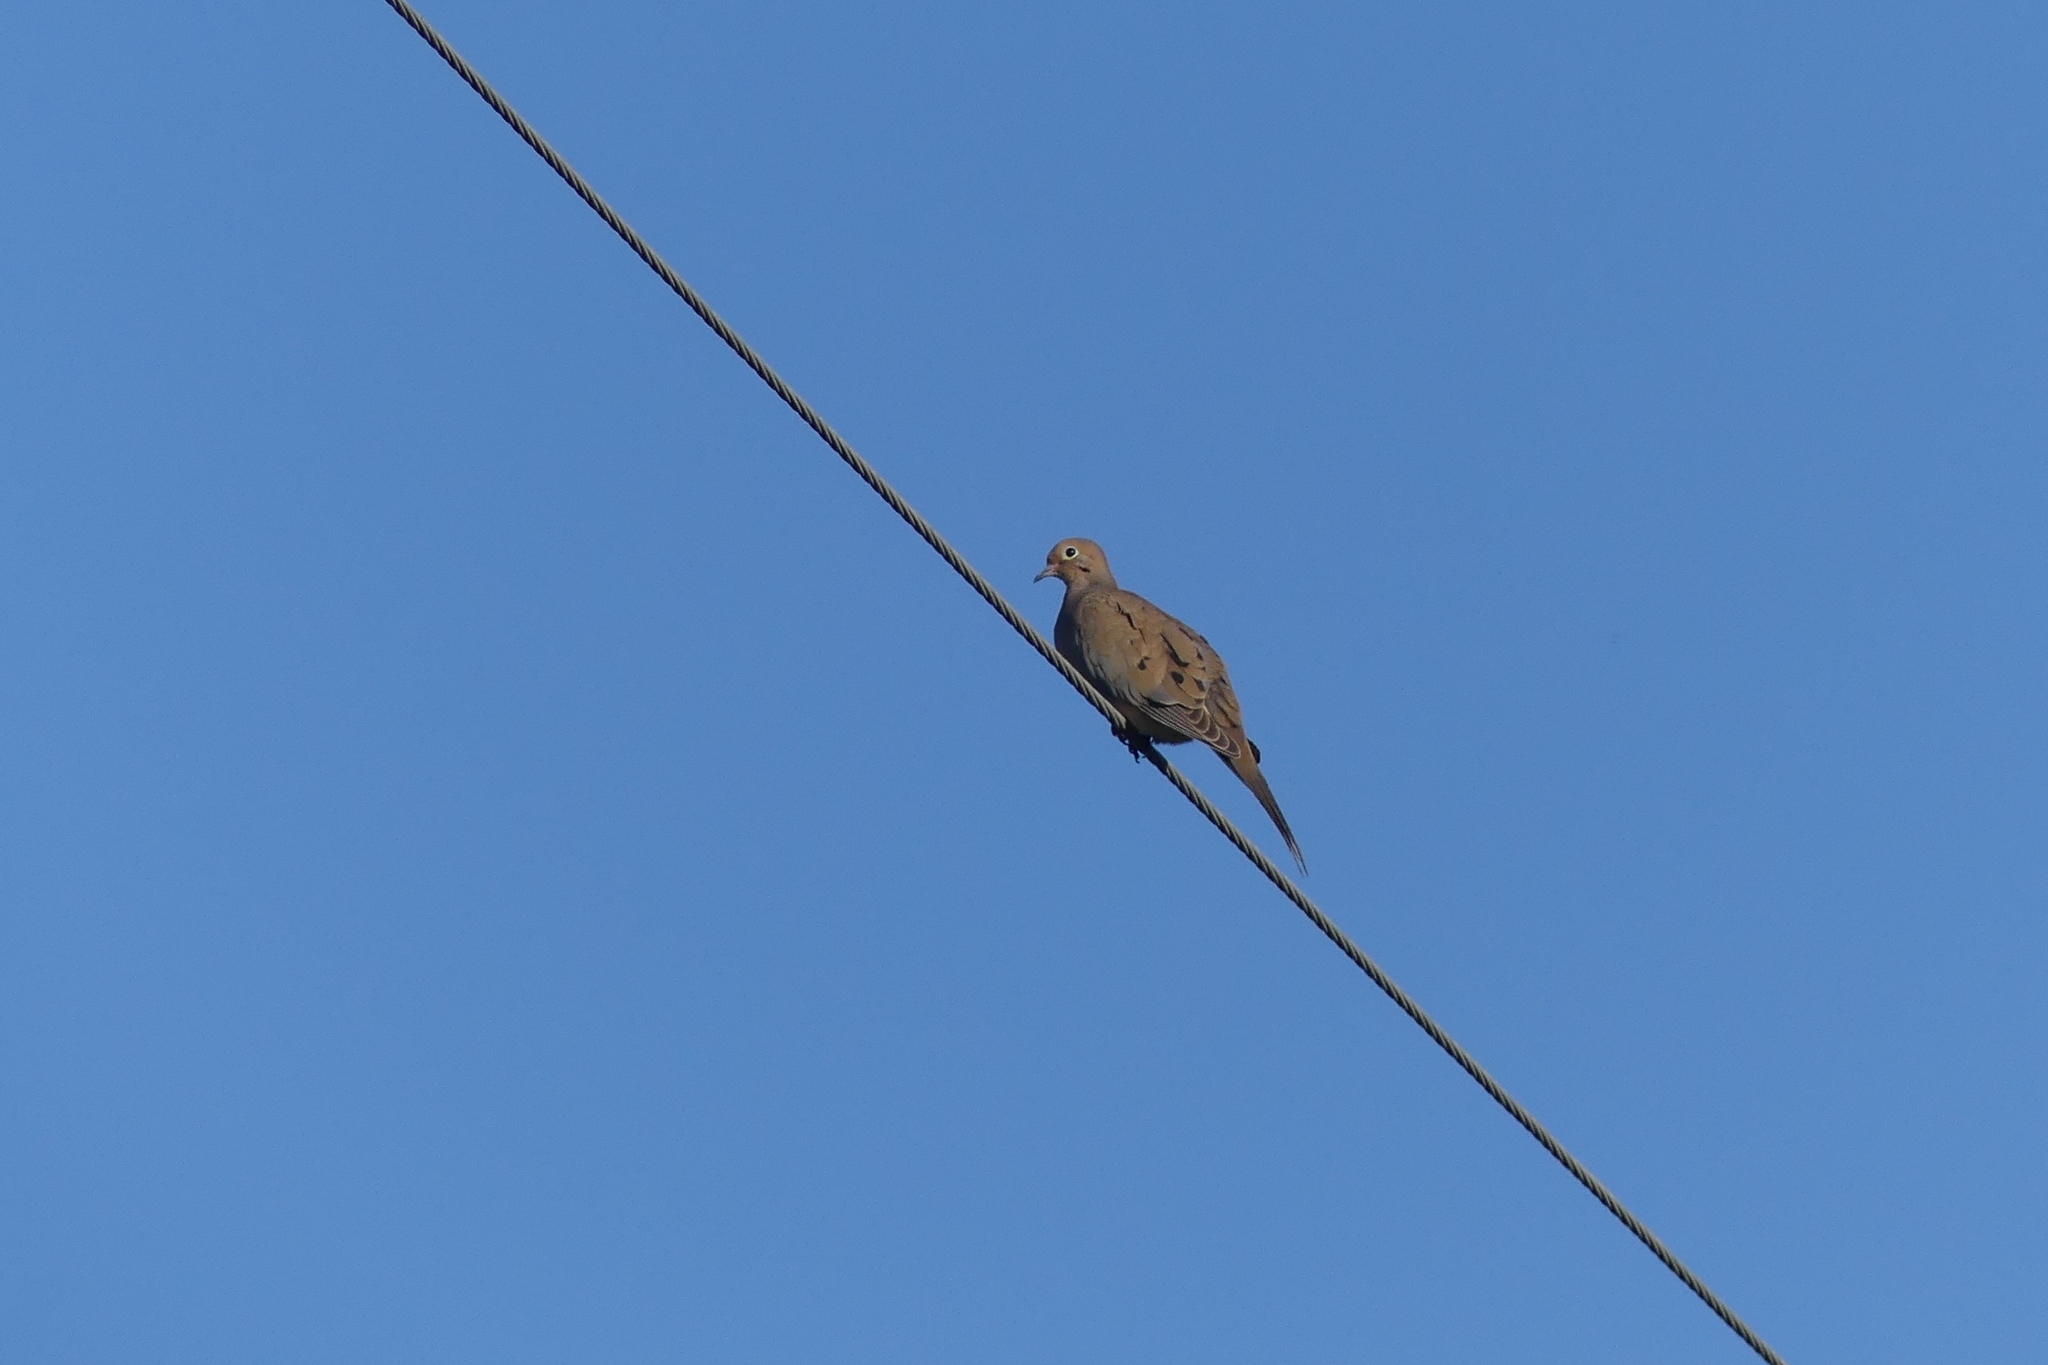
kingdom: Animalia
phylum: Chordata
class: Aves
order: Columbiformes
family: Columbidae
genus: Zenaida
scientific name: Zenaida macroura
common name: Mourning dove
